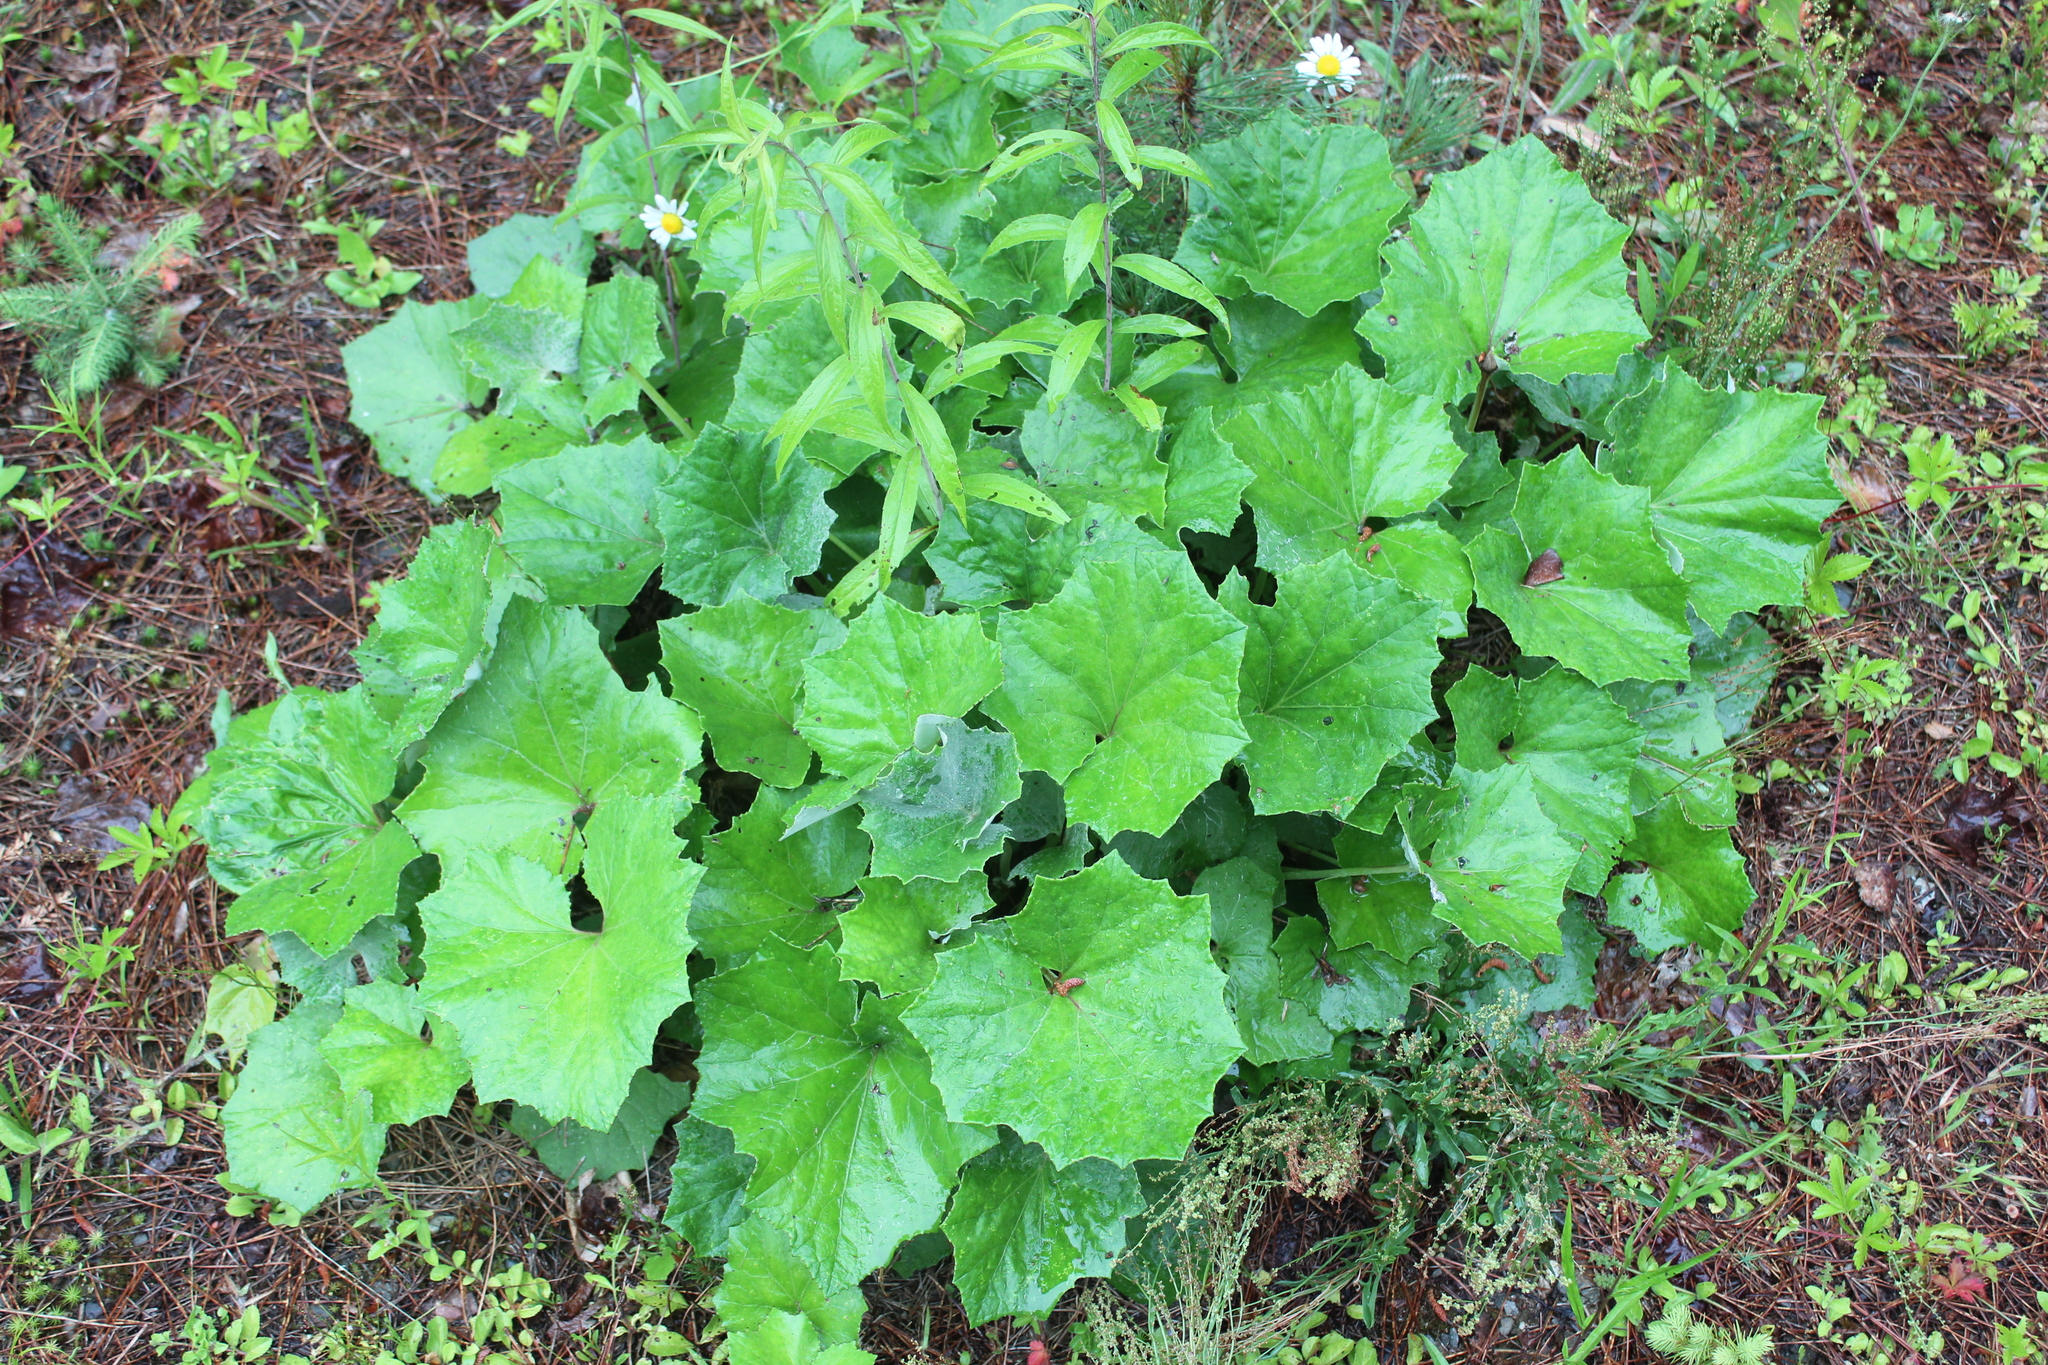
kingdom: Plantae
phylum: Tracheophyta
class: Magnoliopsida
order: Asterales
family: Asteraceae
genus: Tussilago
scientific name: Tussilago farfara
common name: Coltsfoot
